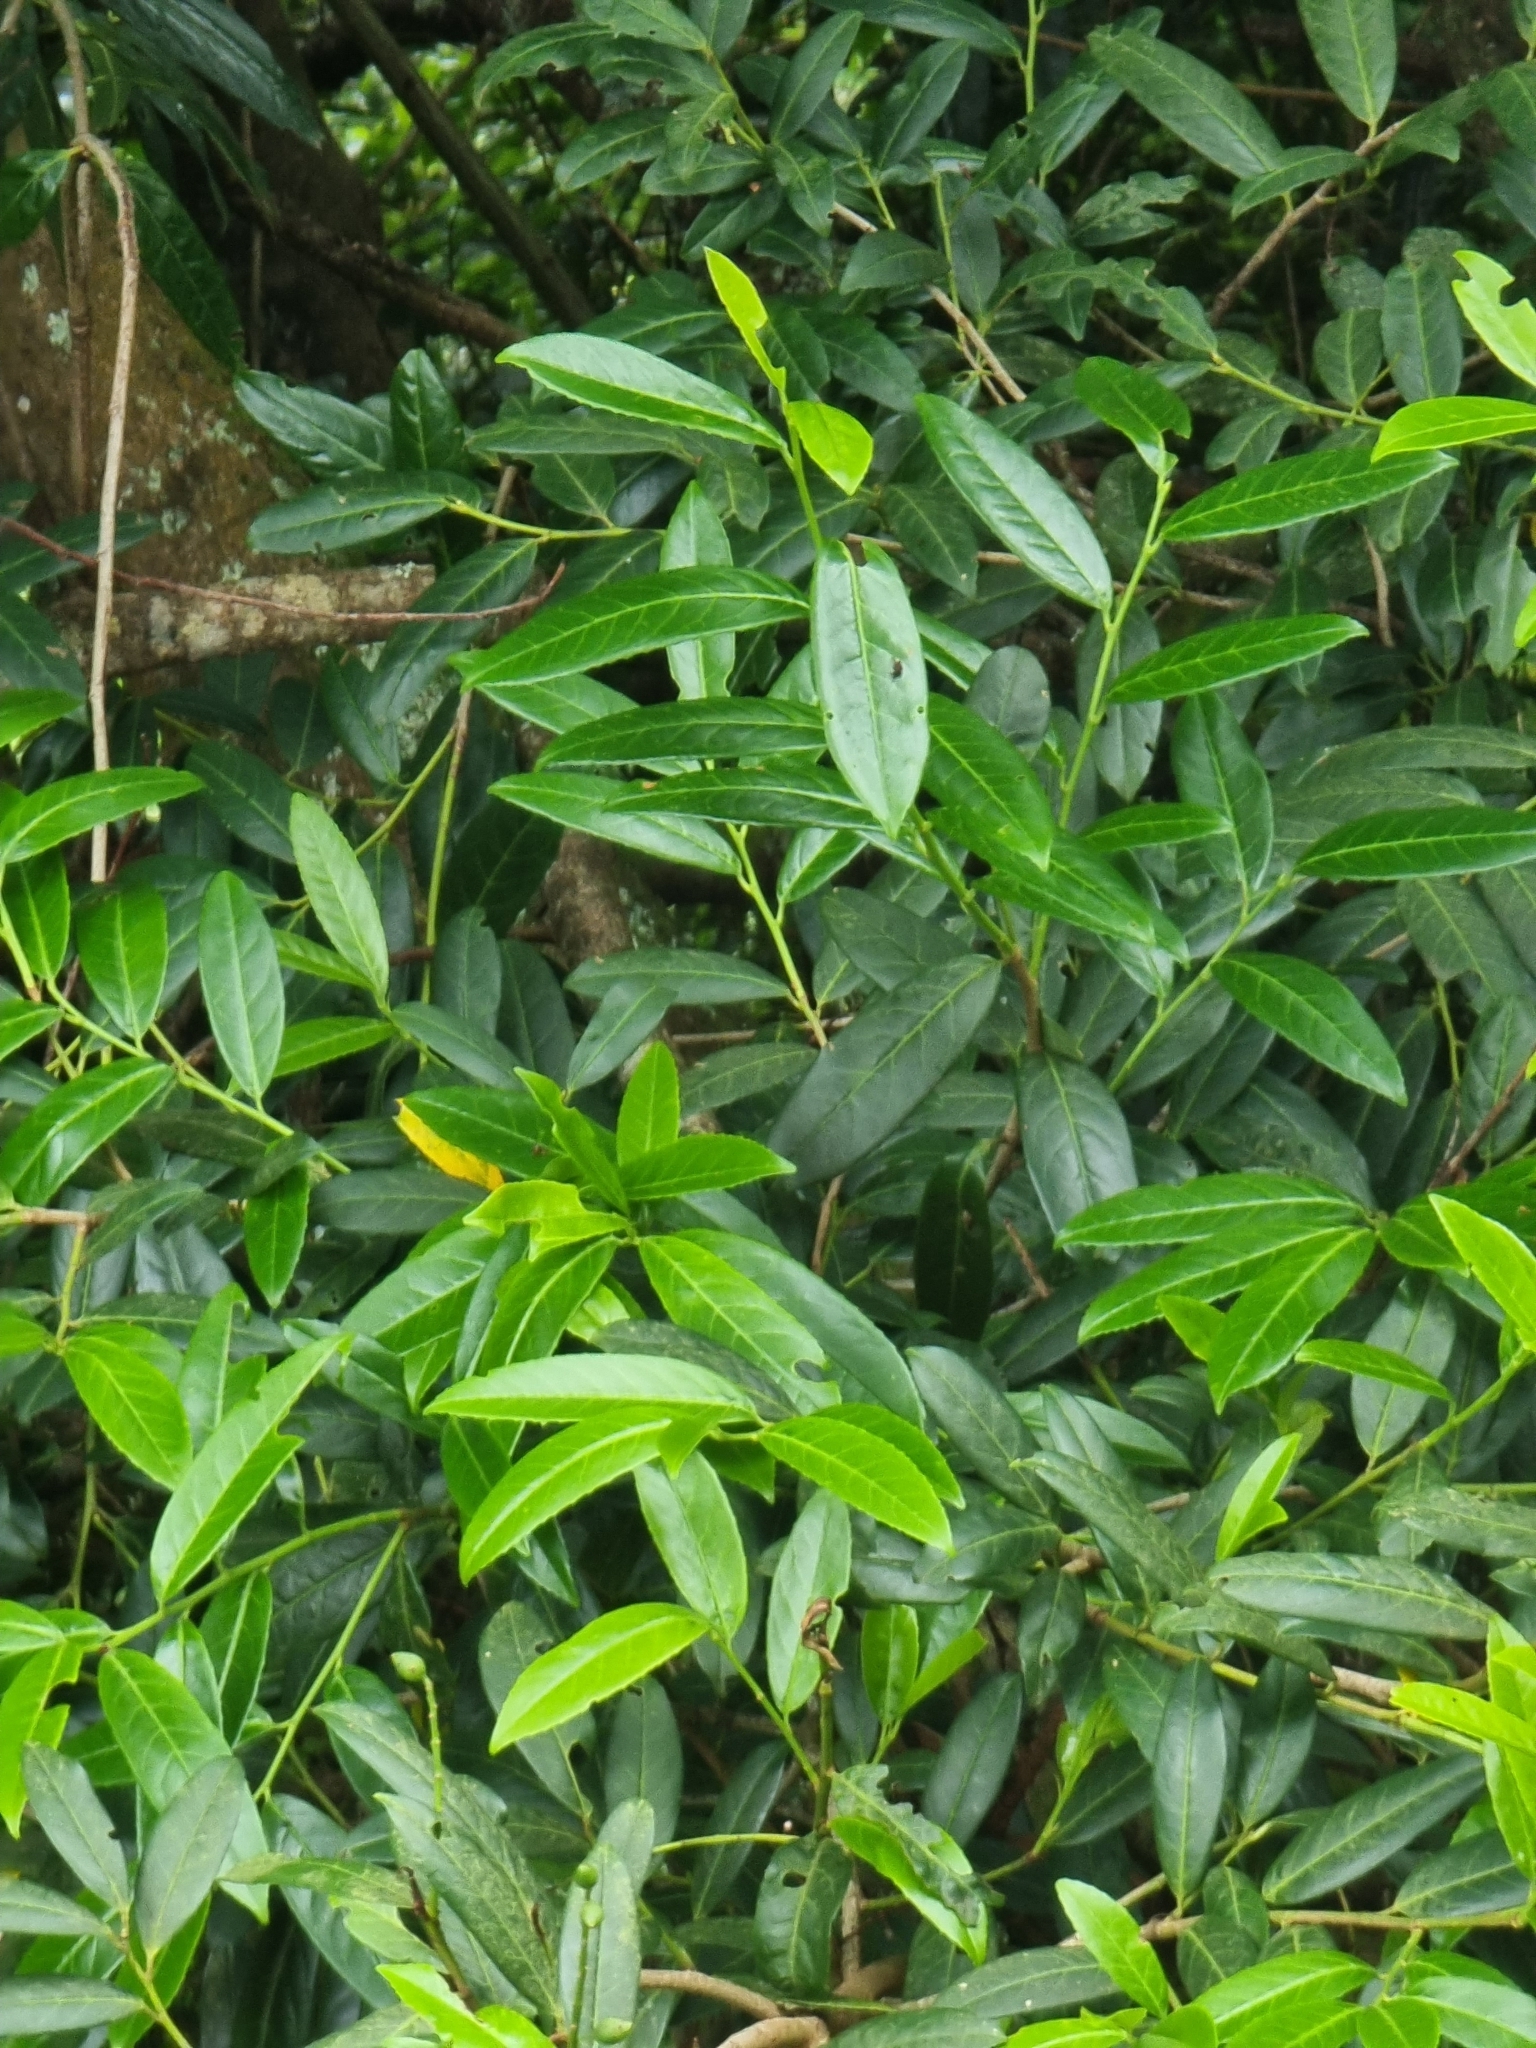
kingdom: Plantae
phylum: Tracheophyta
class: Magnoliopsida
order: Rosales
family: Rosaceae
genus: Prunus
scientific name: Prunus laurocerasus
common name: Cherry laurel
